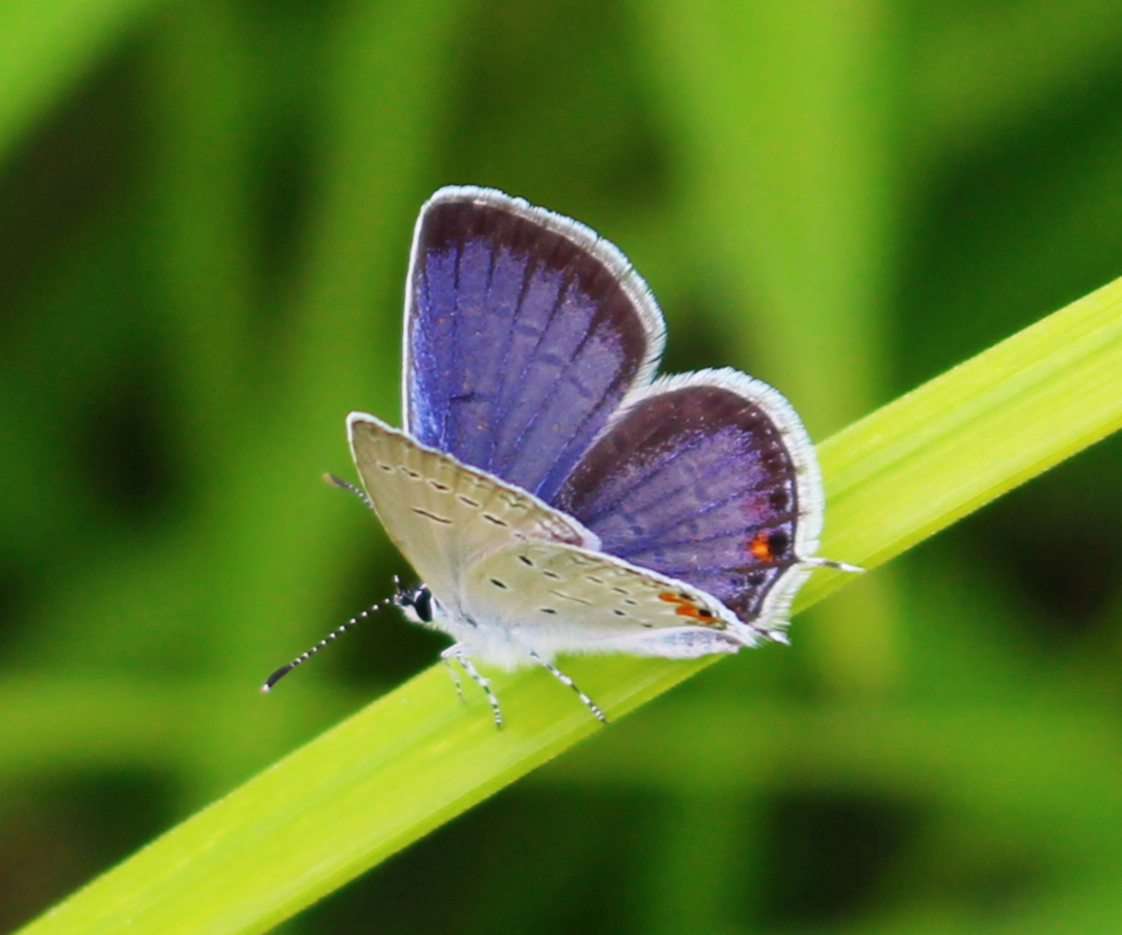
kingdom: Animalia
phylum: Arthropoda
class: Insecta
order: Lepidoptera
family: Lycaenidae
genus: Elkalyce
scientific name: Elkalyce comyntas
